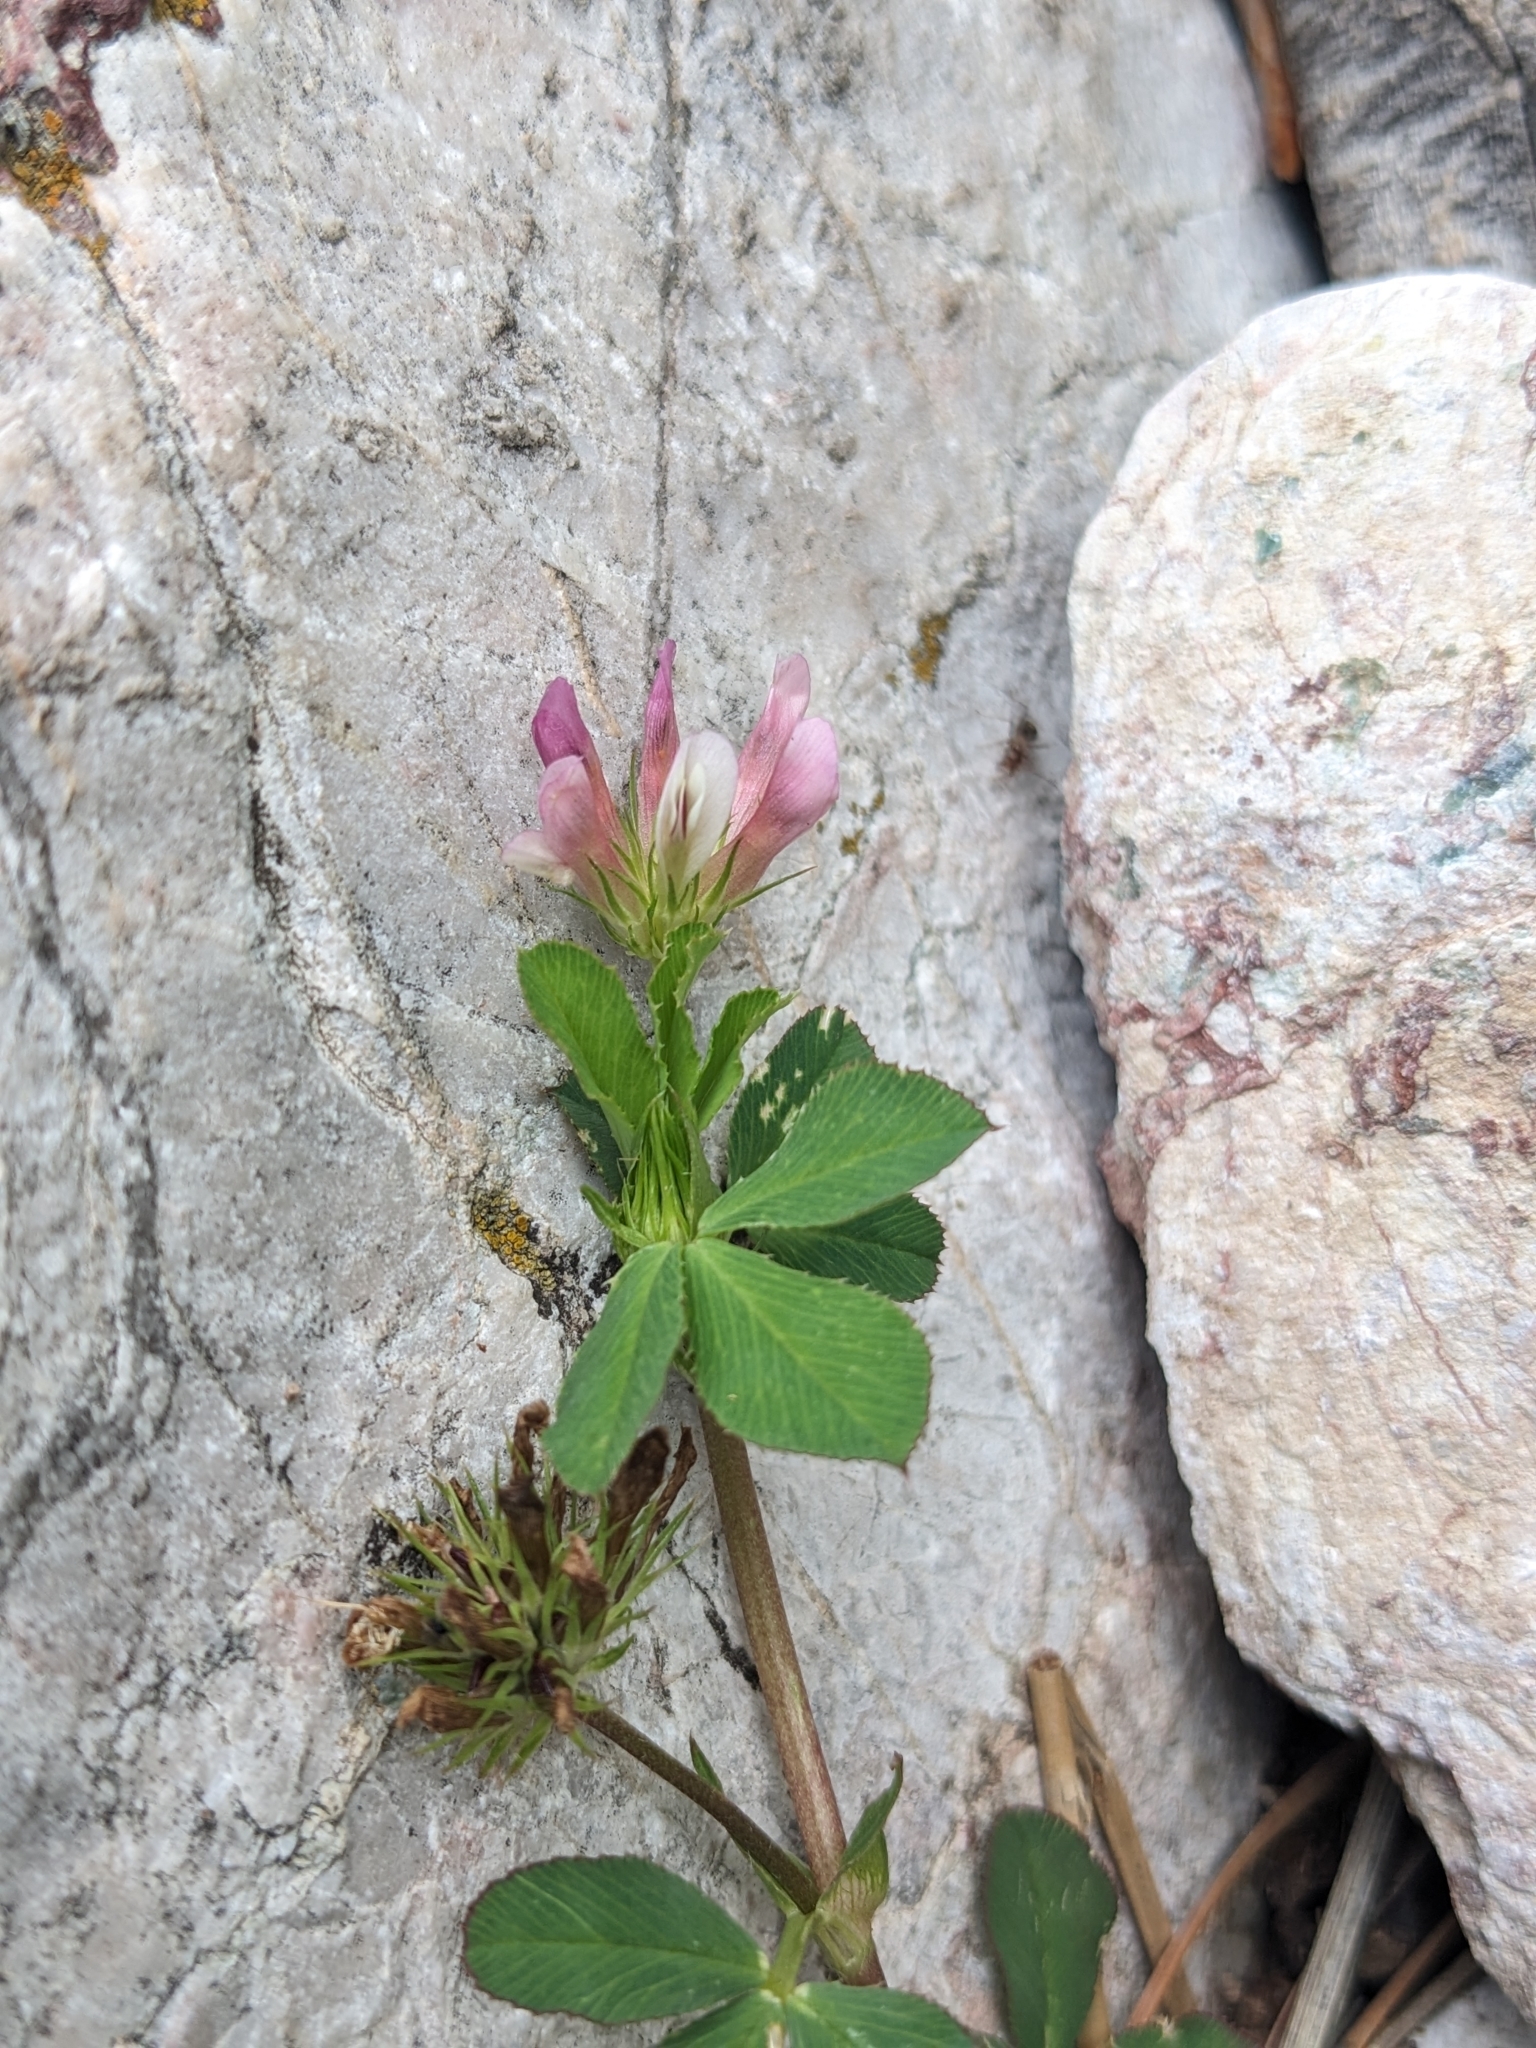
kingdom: Plantae
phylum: Tracheophyta
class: Magnoliopsida
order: Fabales
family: Fabaceae
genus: Trifolium
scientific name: Trifolium wormskioldii
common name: Springbank clover
